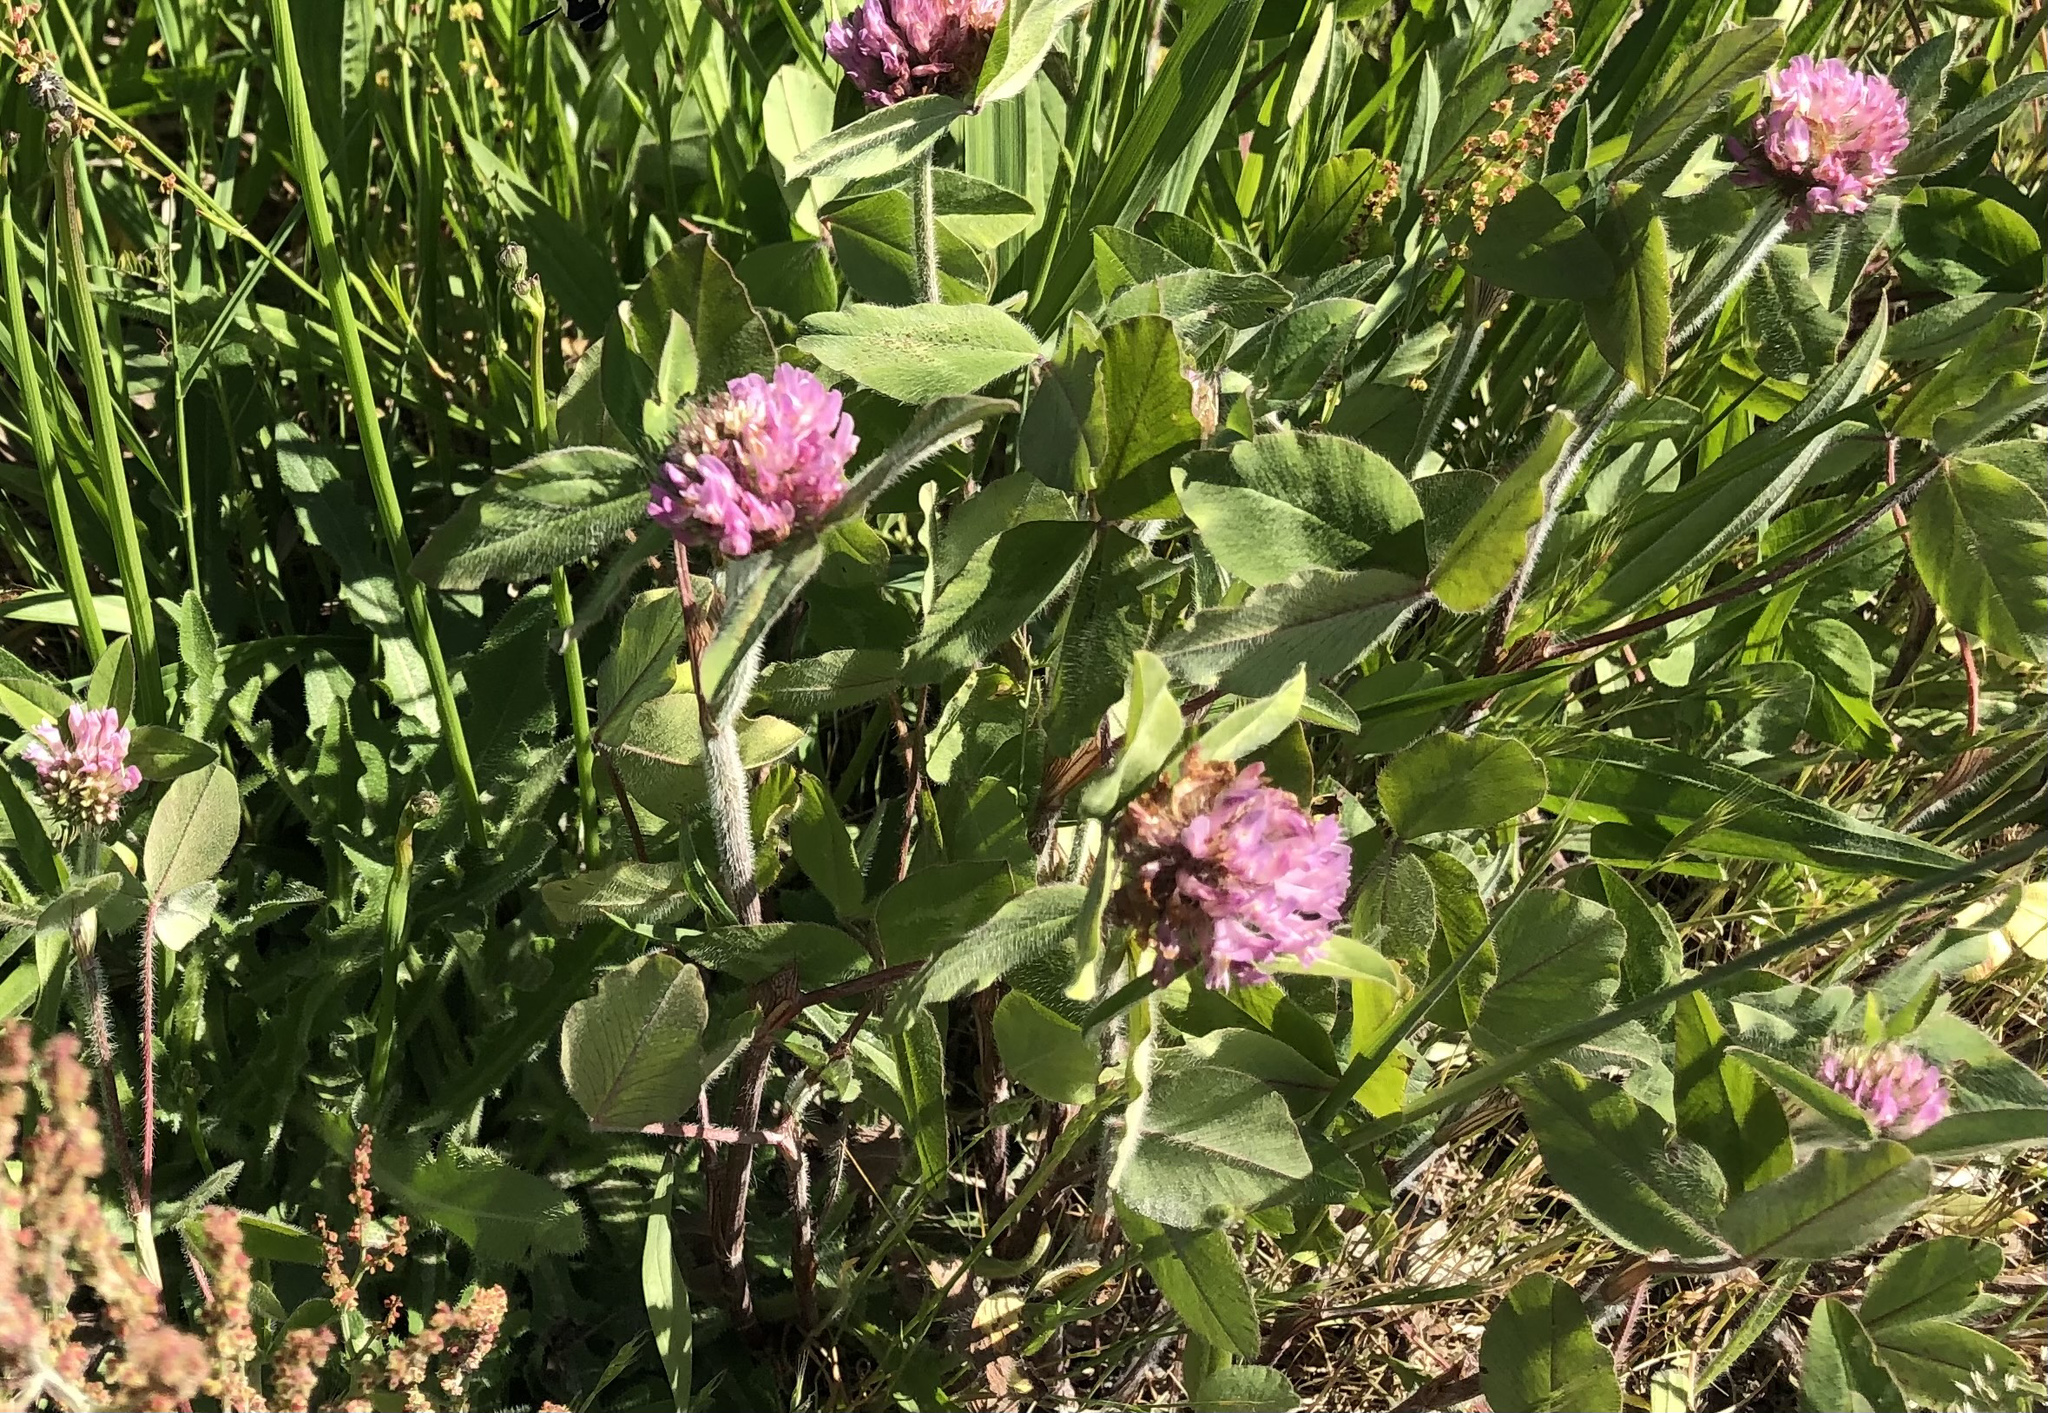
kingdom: Plantae
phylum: Tracheophyta
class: Magnoliopsida
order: Fabales
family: Fabaceae
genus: Trifolium
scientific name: Trifolium pratense
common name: Red clover
